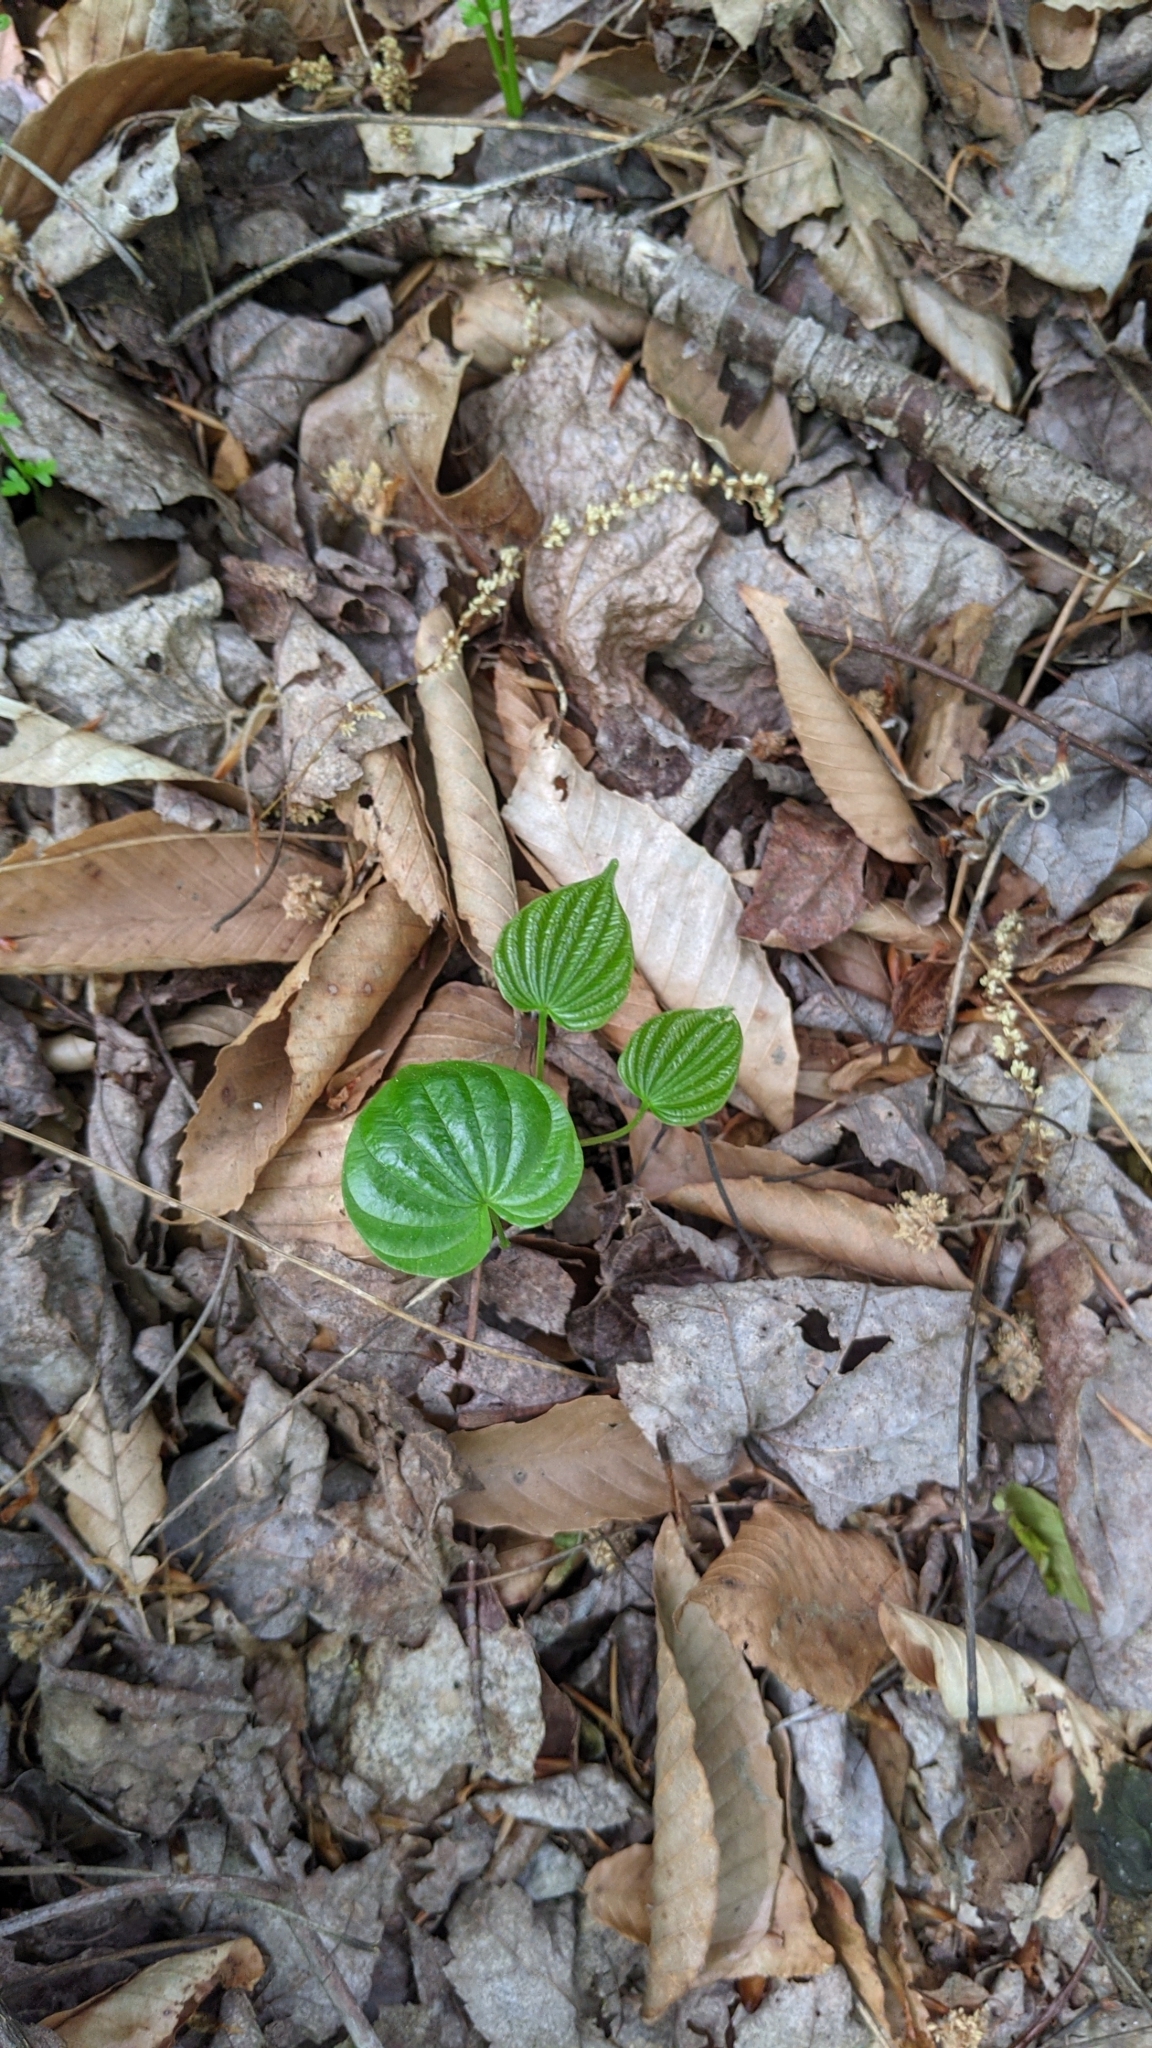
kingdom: Plantae
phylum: Tracheophyta
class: Liliopsida
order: Dioscoreales
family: Dioscoreaceae
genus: Dioscorea
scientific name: Dioscorea villosa
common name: Wild yam
